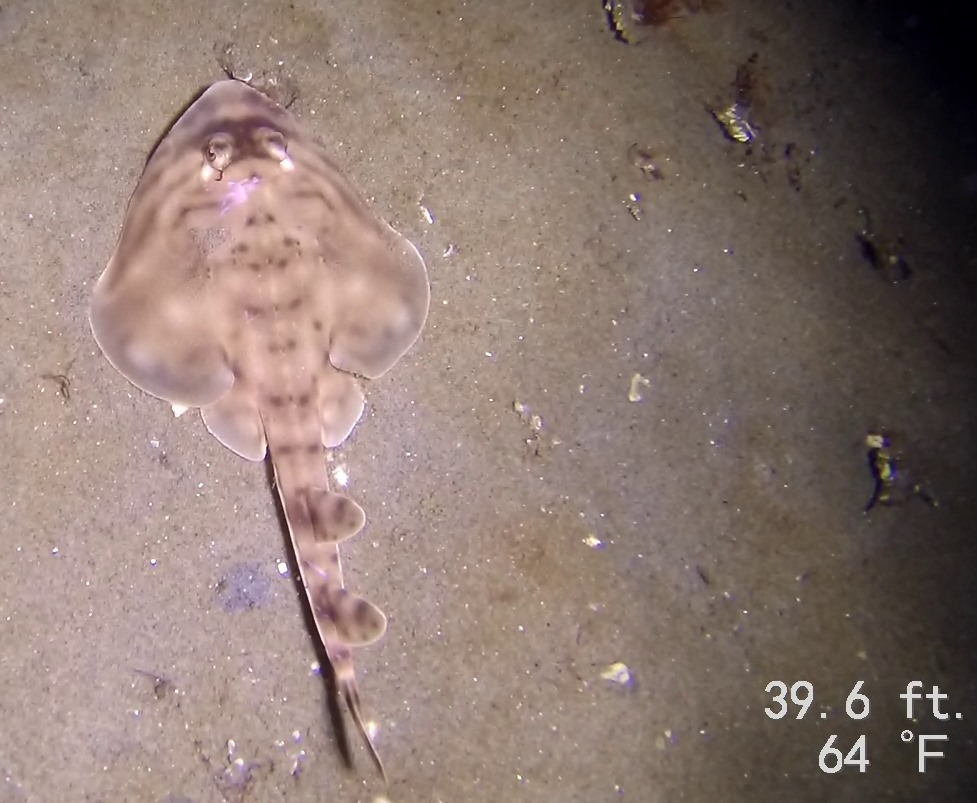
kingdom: Animalia
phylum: Chordata
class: Elasmobranchii
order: Rhinopristiformes
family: Rhinobatidae
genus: Zapteryx
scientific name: Zapteryx exasperata
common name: Banded guitarfish
